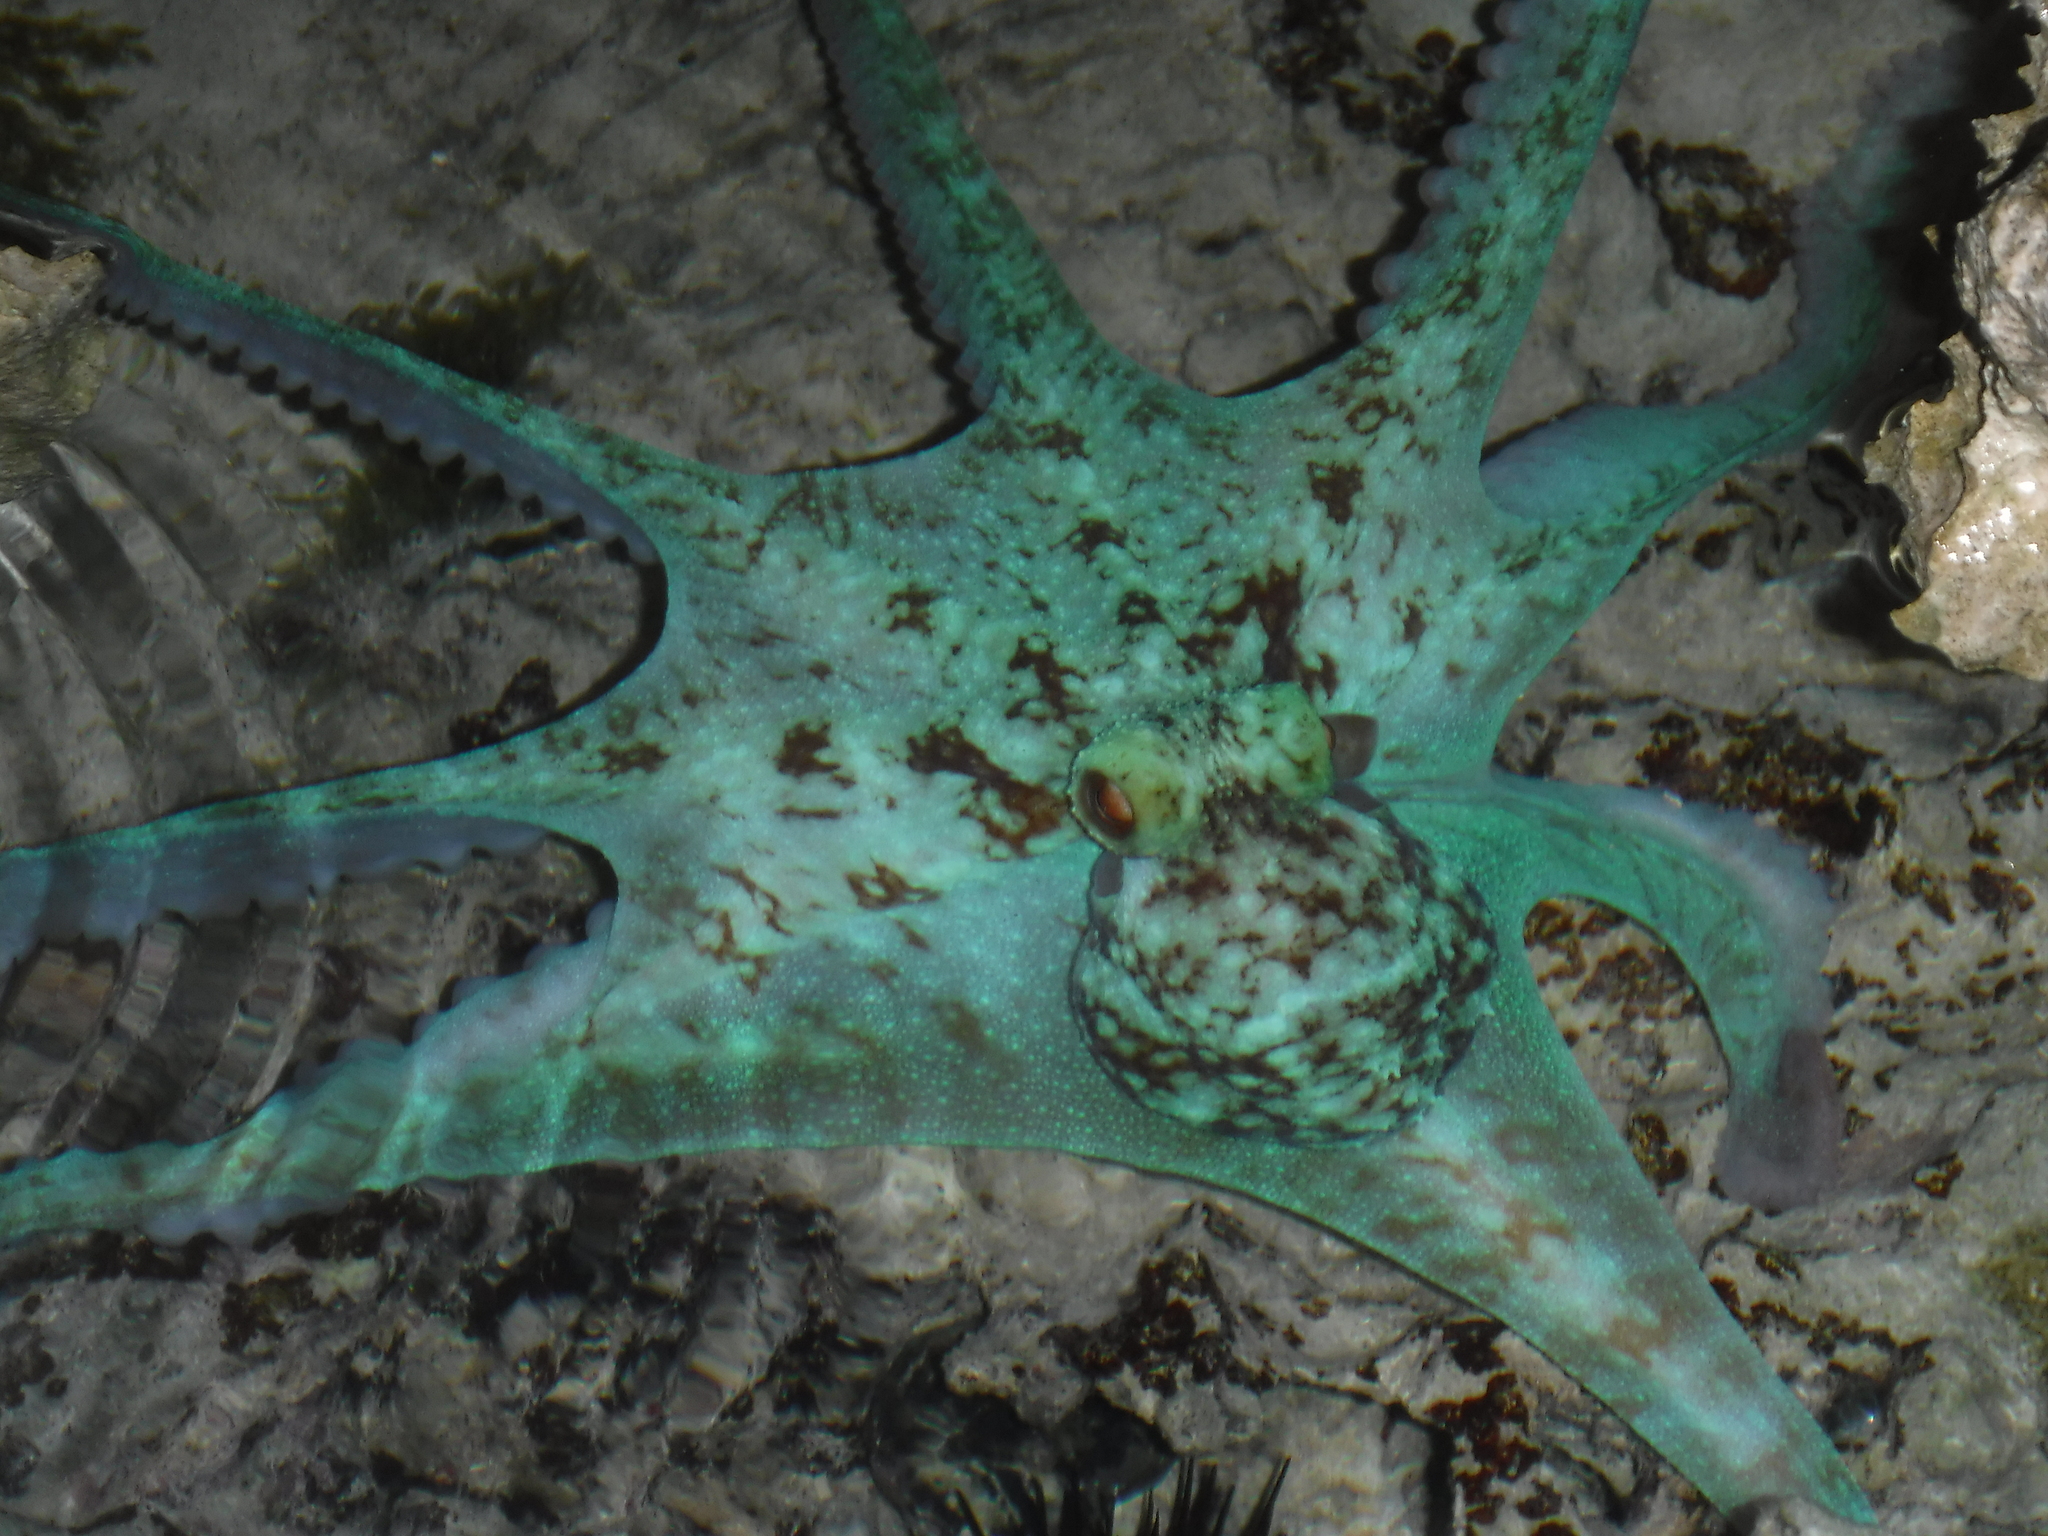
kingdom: Animalia
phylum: Mollusca
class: Cephalopoda
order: Octopoda
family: Octopodidae
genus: Octopus
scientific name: Octopus briareus
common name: Caribbean reef octopus
